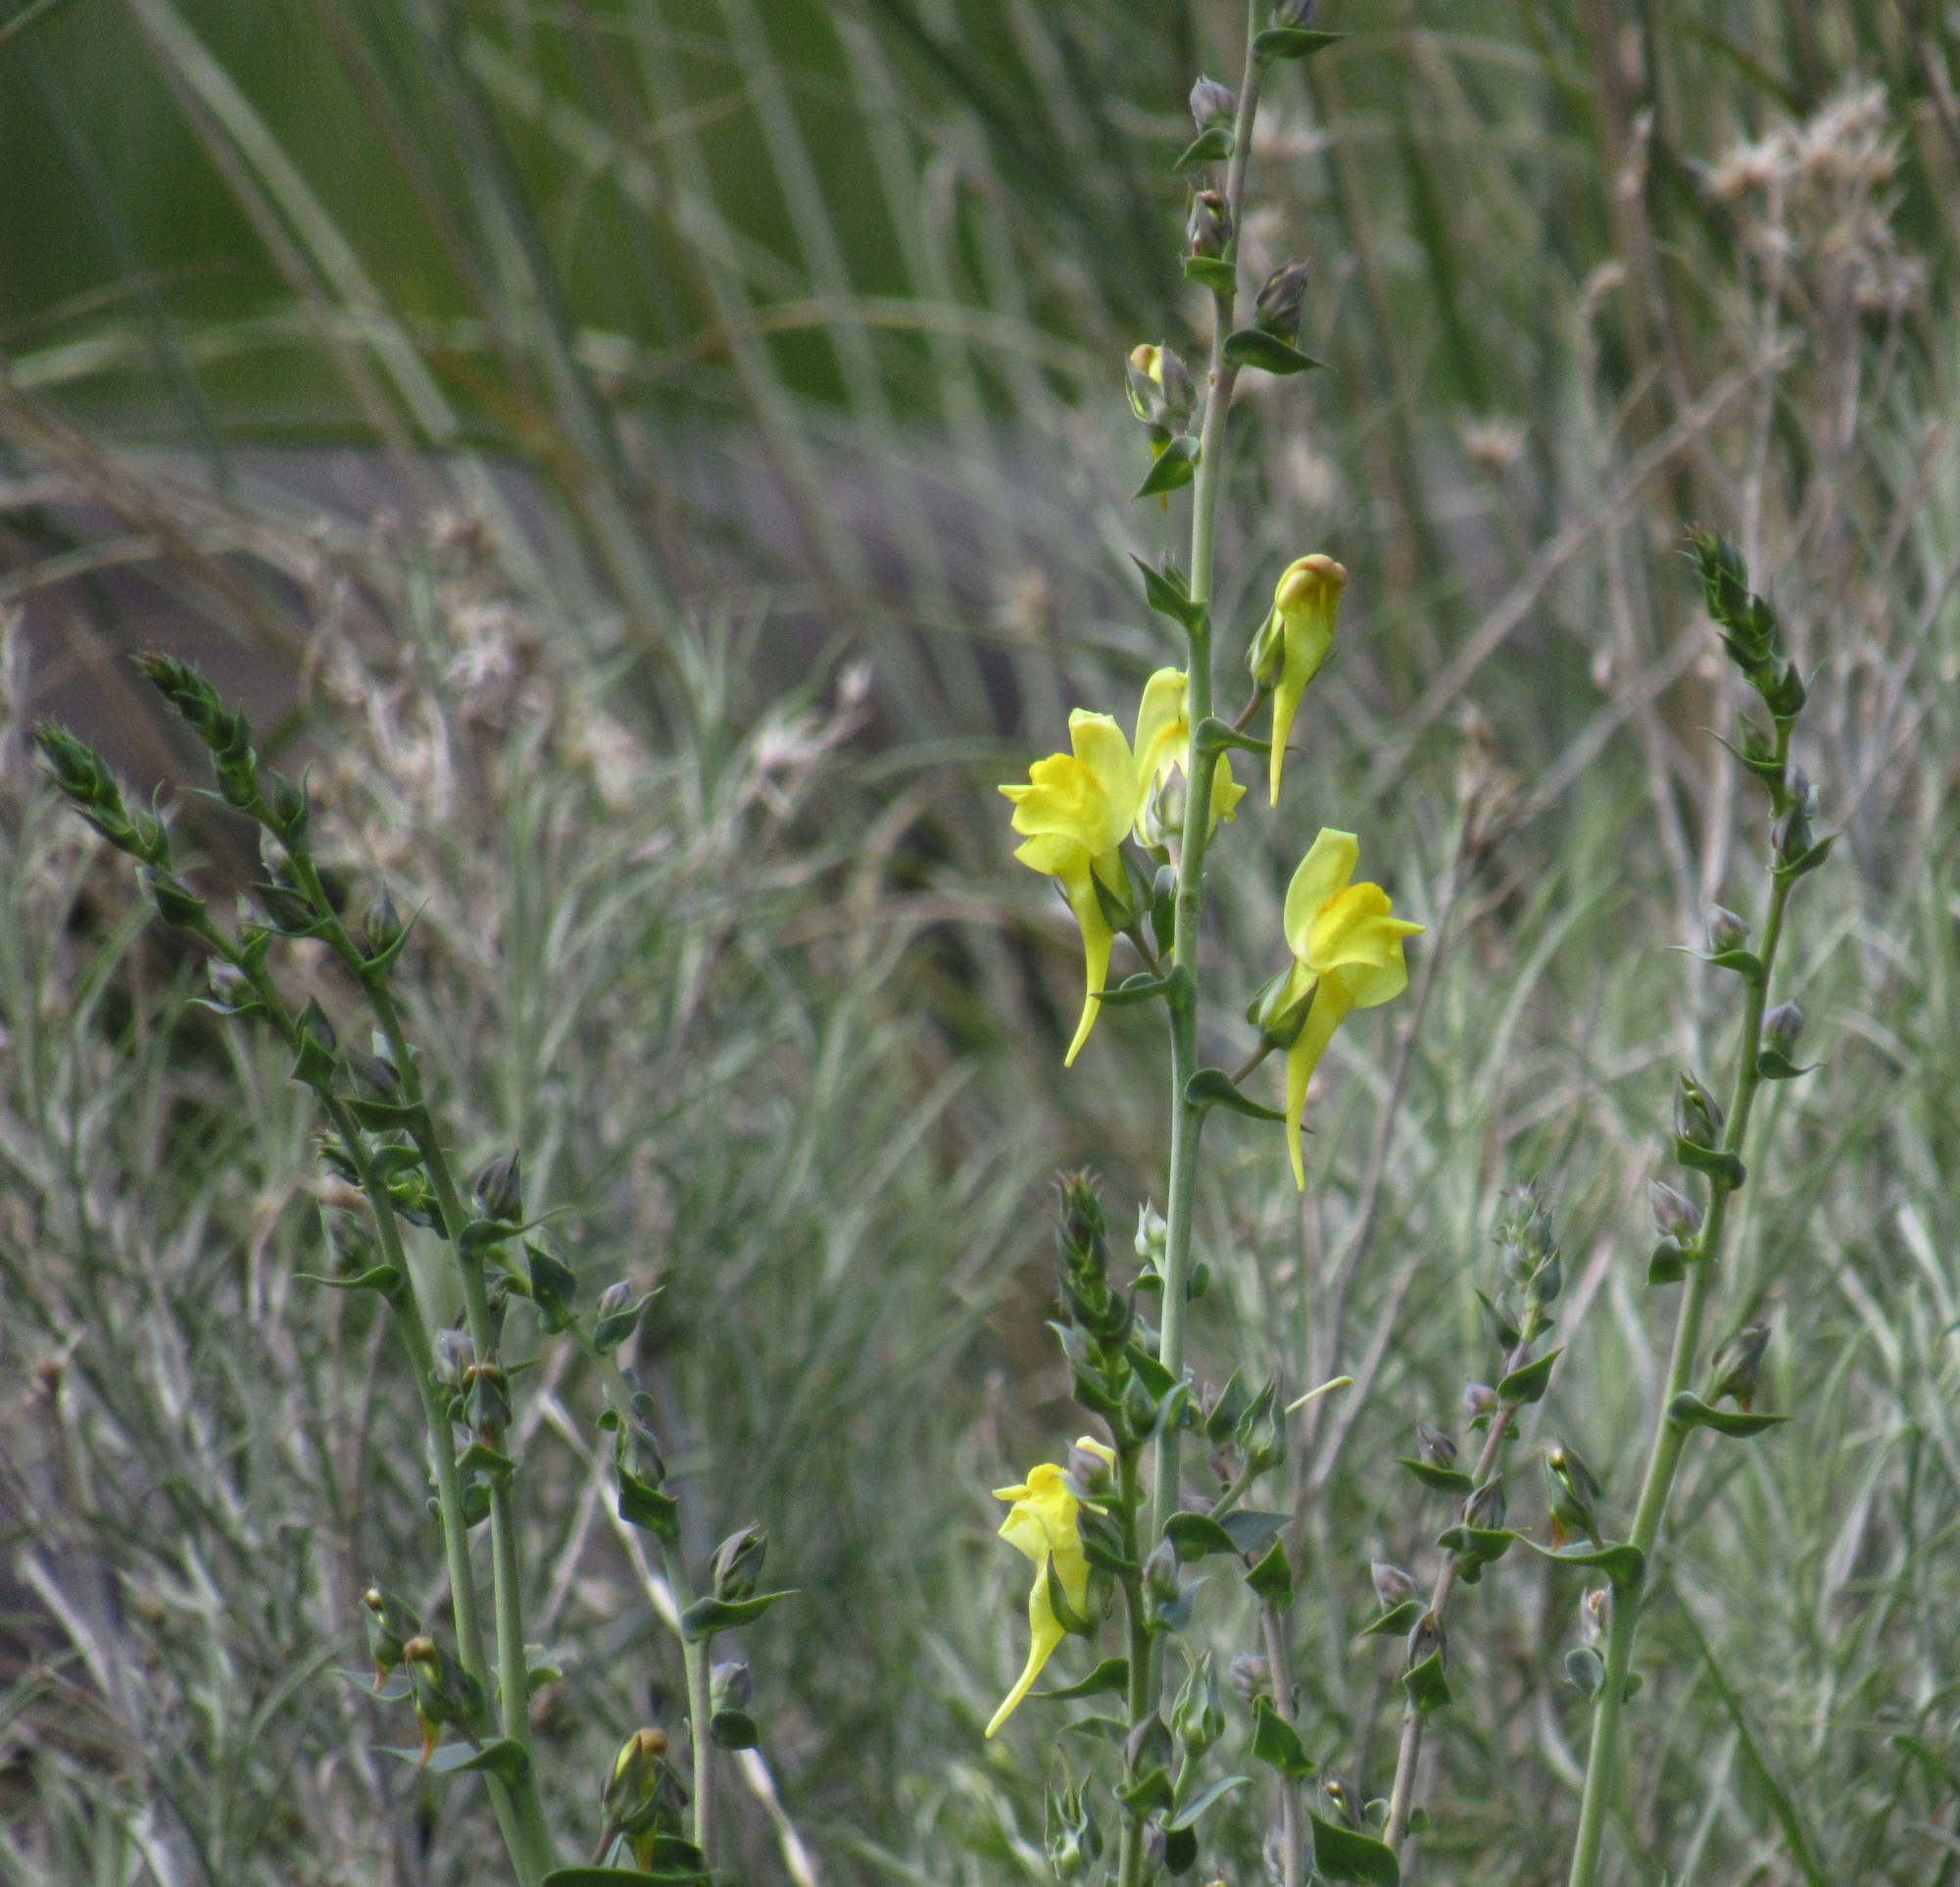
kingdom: Plantae
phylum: Tracheophyta
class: Magnoliopsida
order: Lamiales
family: Plantaginaceae
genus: Linaria
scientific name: Linaria dalmatica
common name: Dalmatian toadflax
